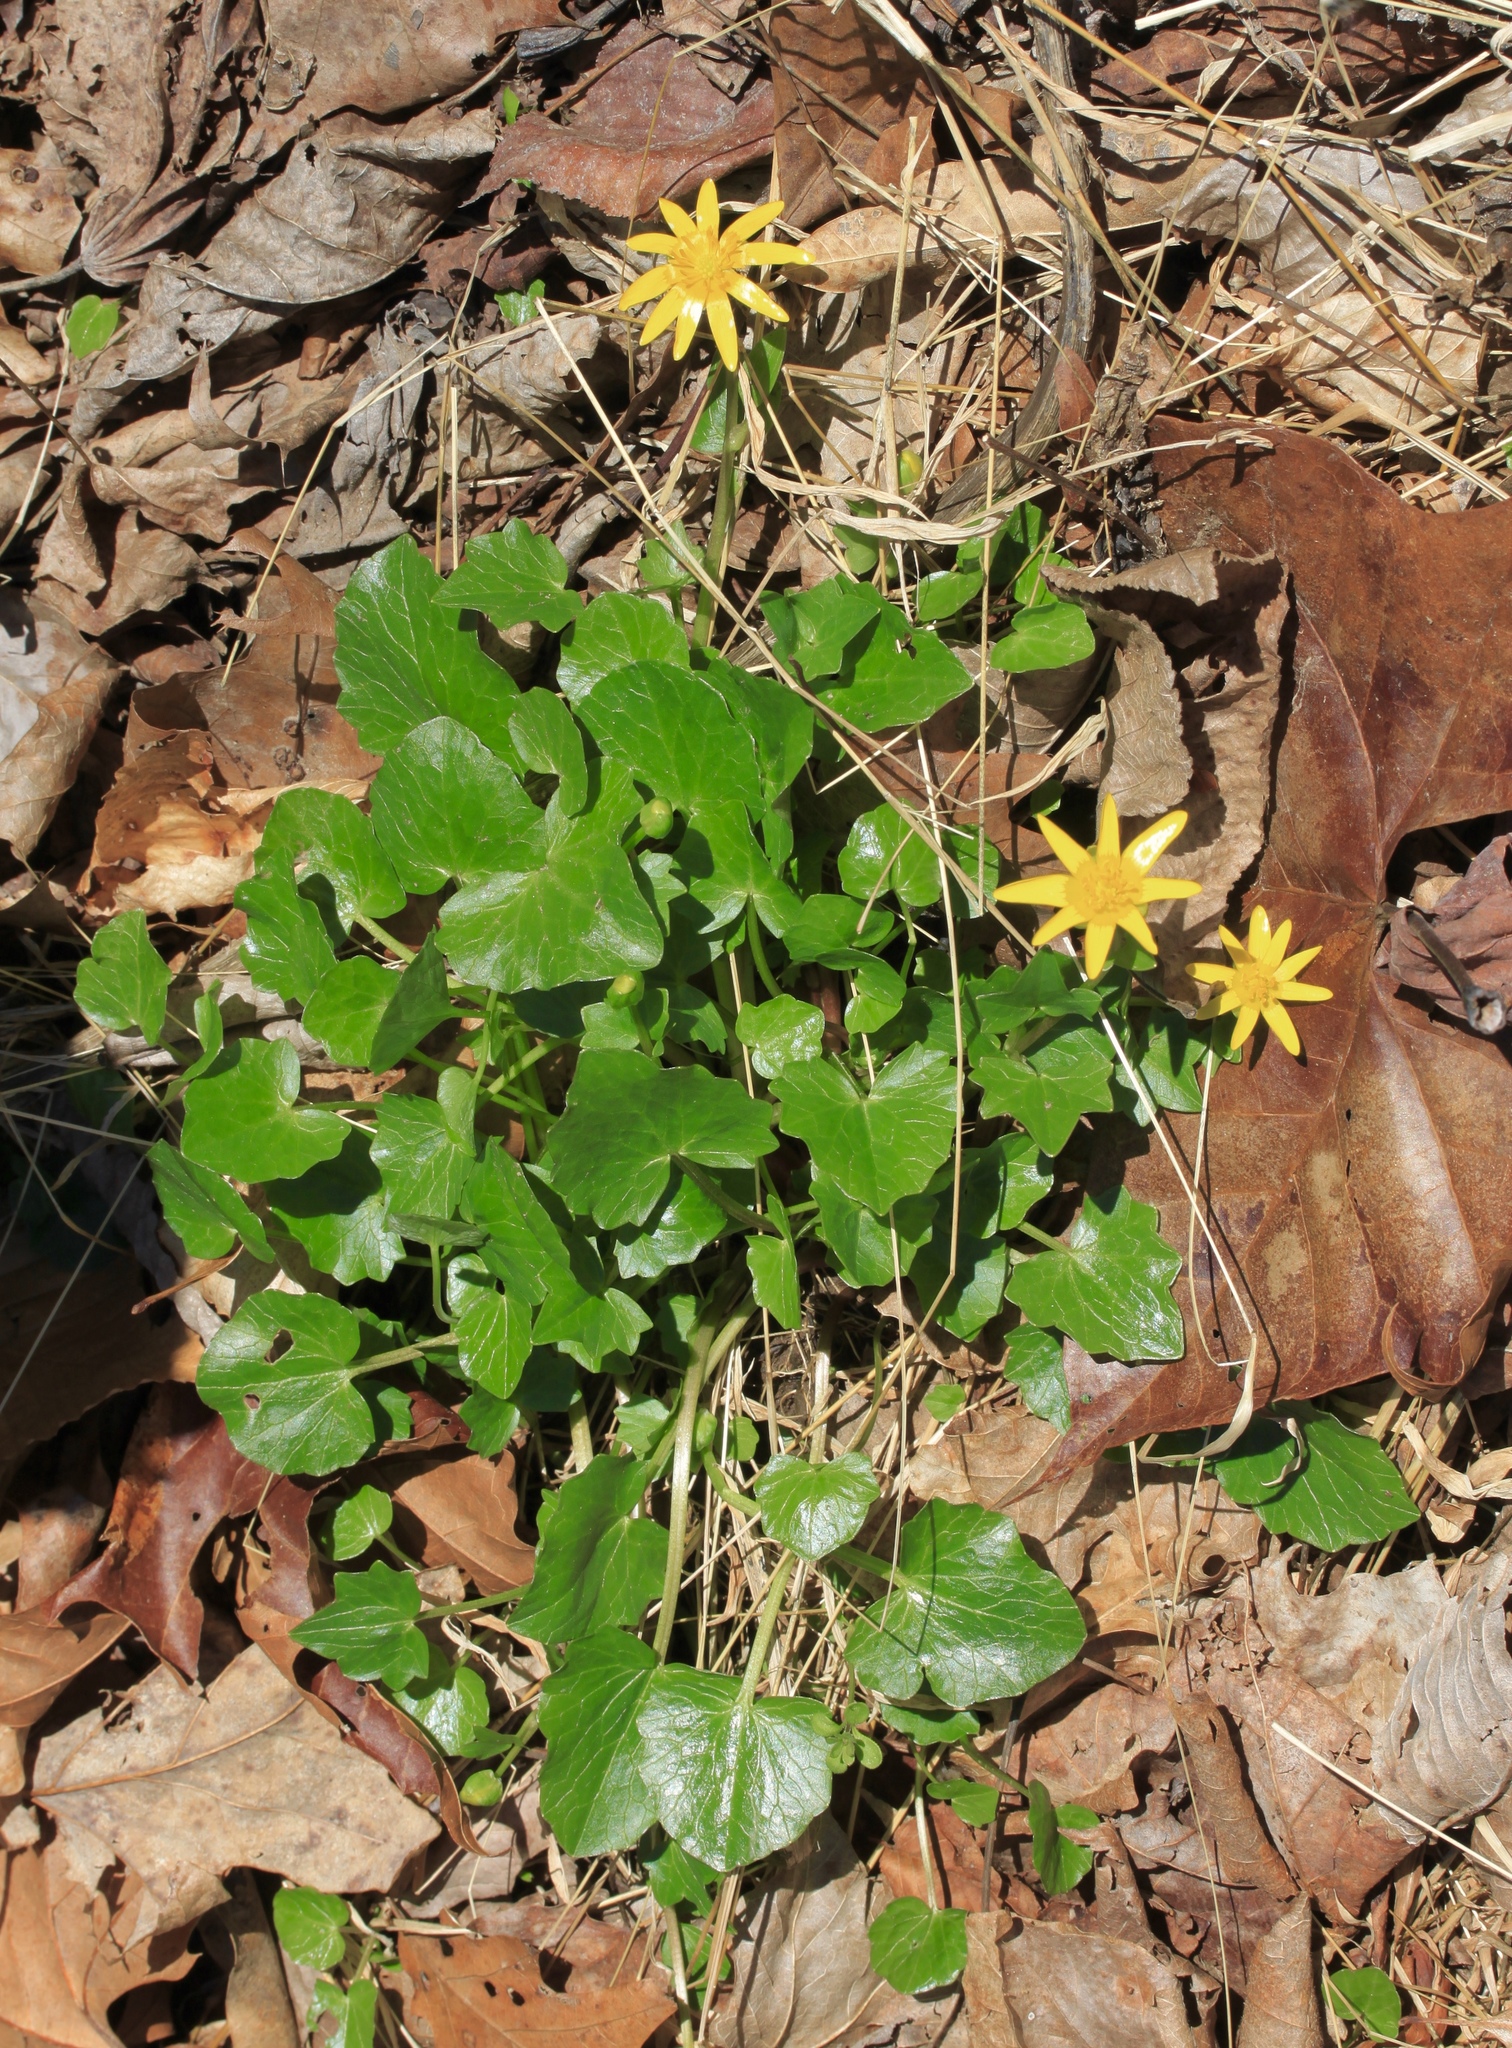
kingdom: Plantae
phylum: Tracheophyta
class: Magnoliopsida
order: Ranunculales
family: Ranunculaceae
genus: Ficaria
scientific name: Ficaria verna
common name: Lesser celandine
